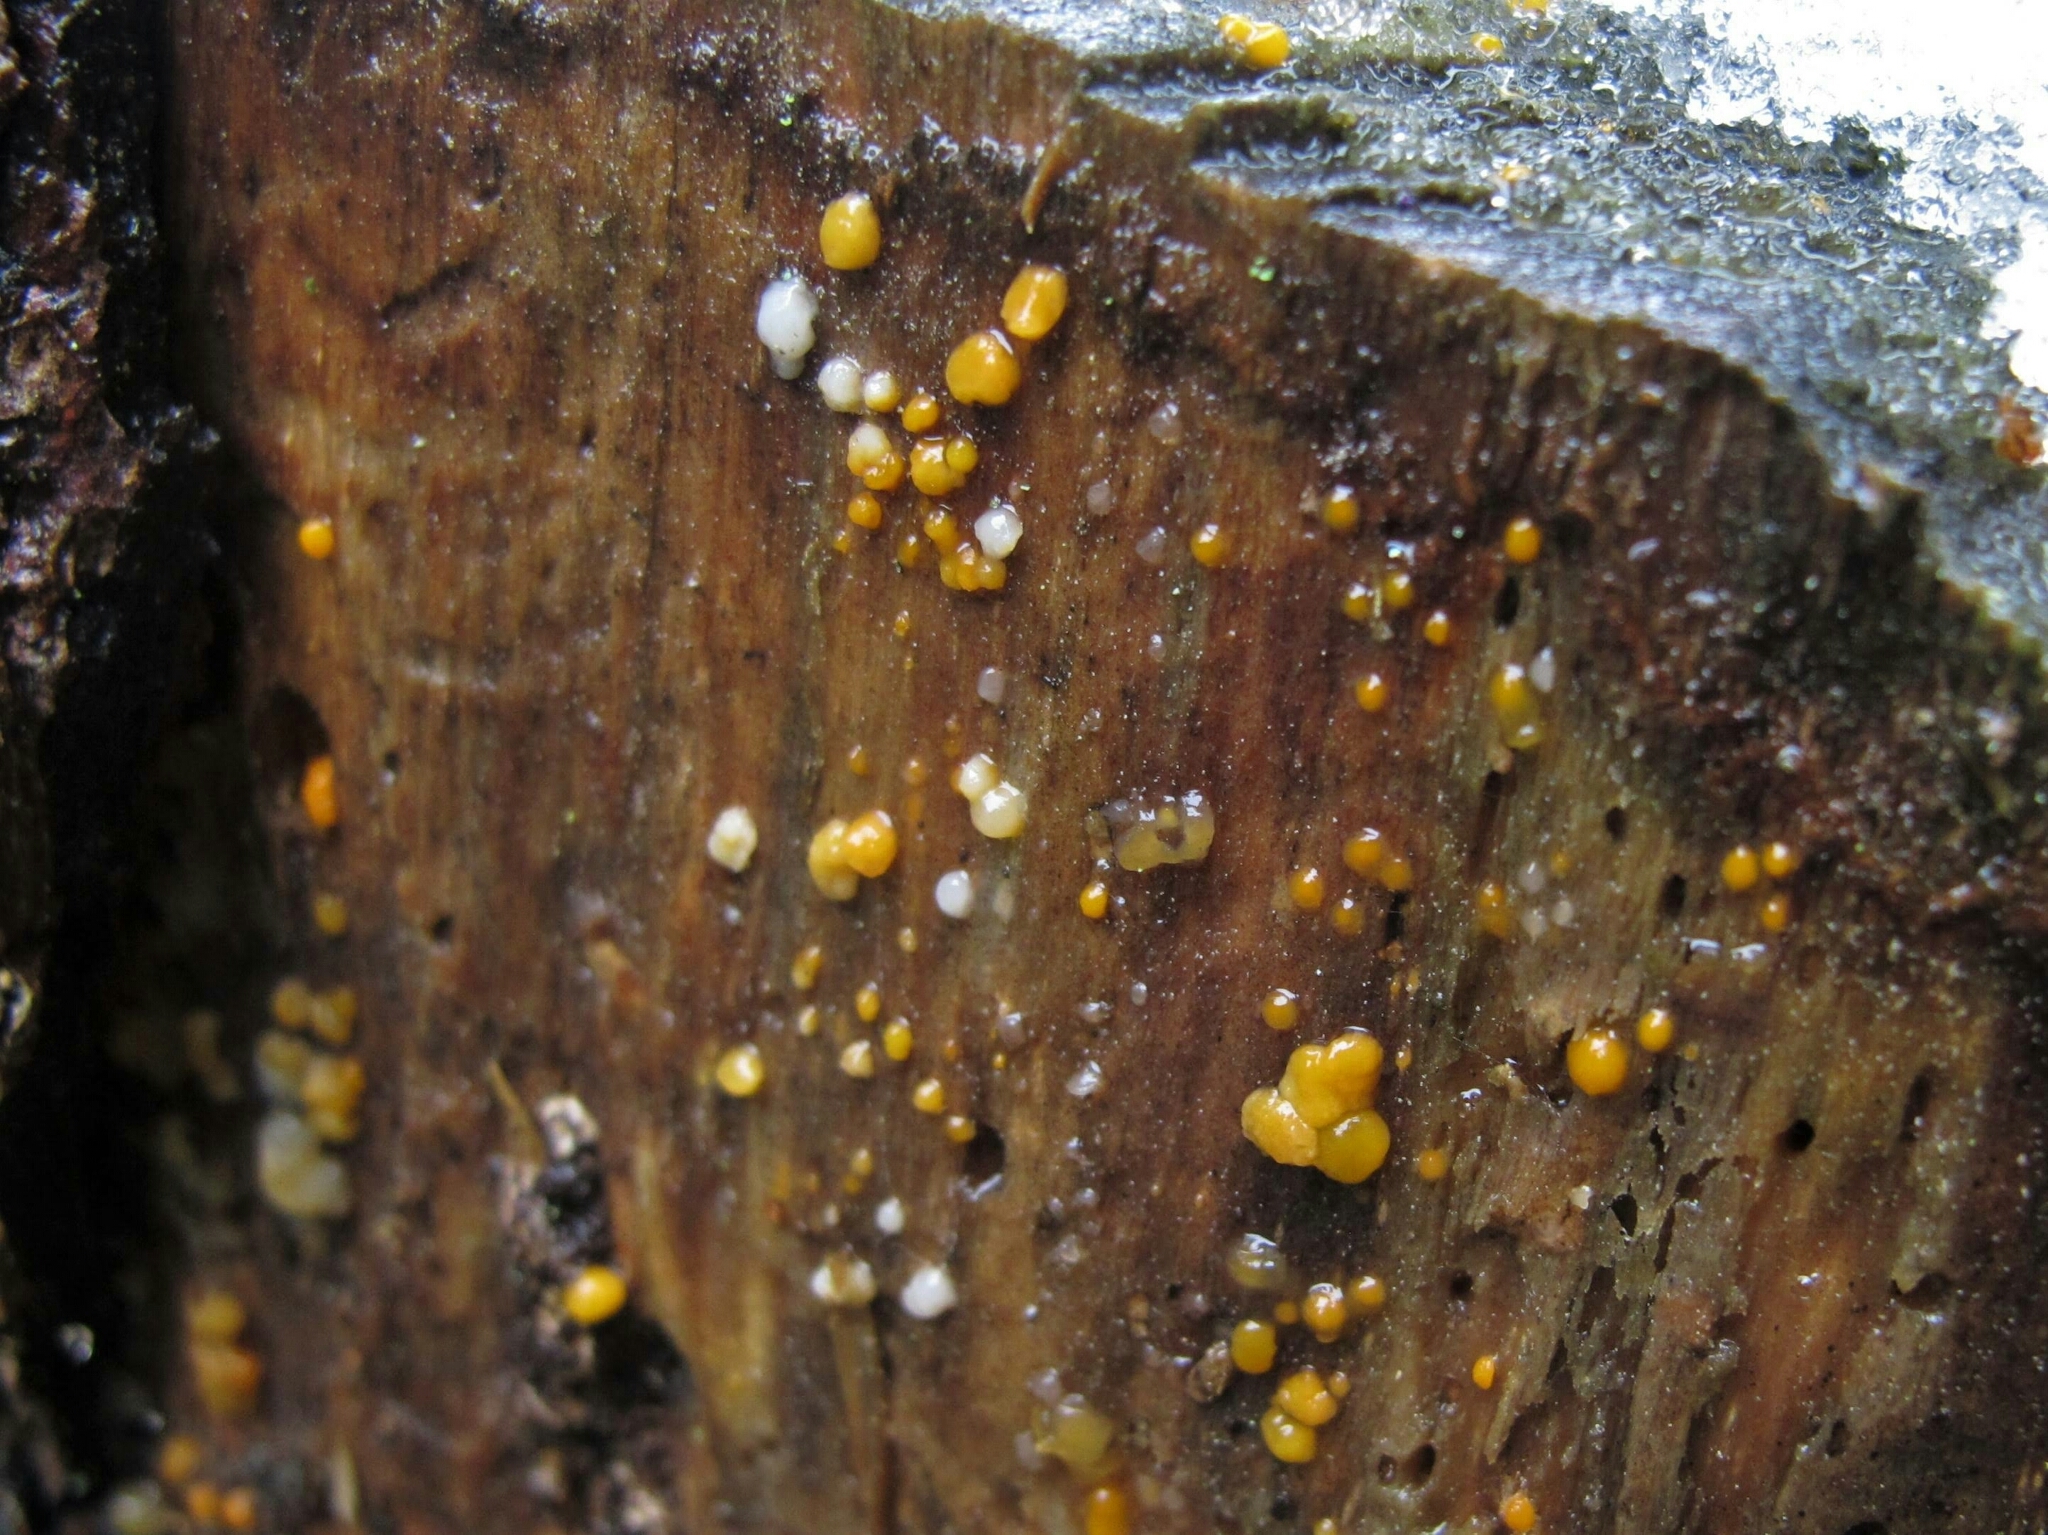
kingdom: Fungi
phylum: Basidiomycota
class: Dacrymycetes
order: Dacrymycetales
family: Dacrymycetaceae
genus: Dacrymyces
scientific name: Dacrymyces stillatus
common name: Common jelly spot
